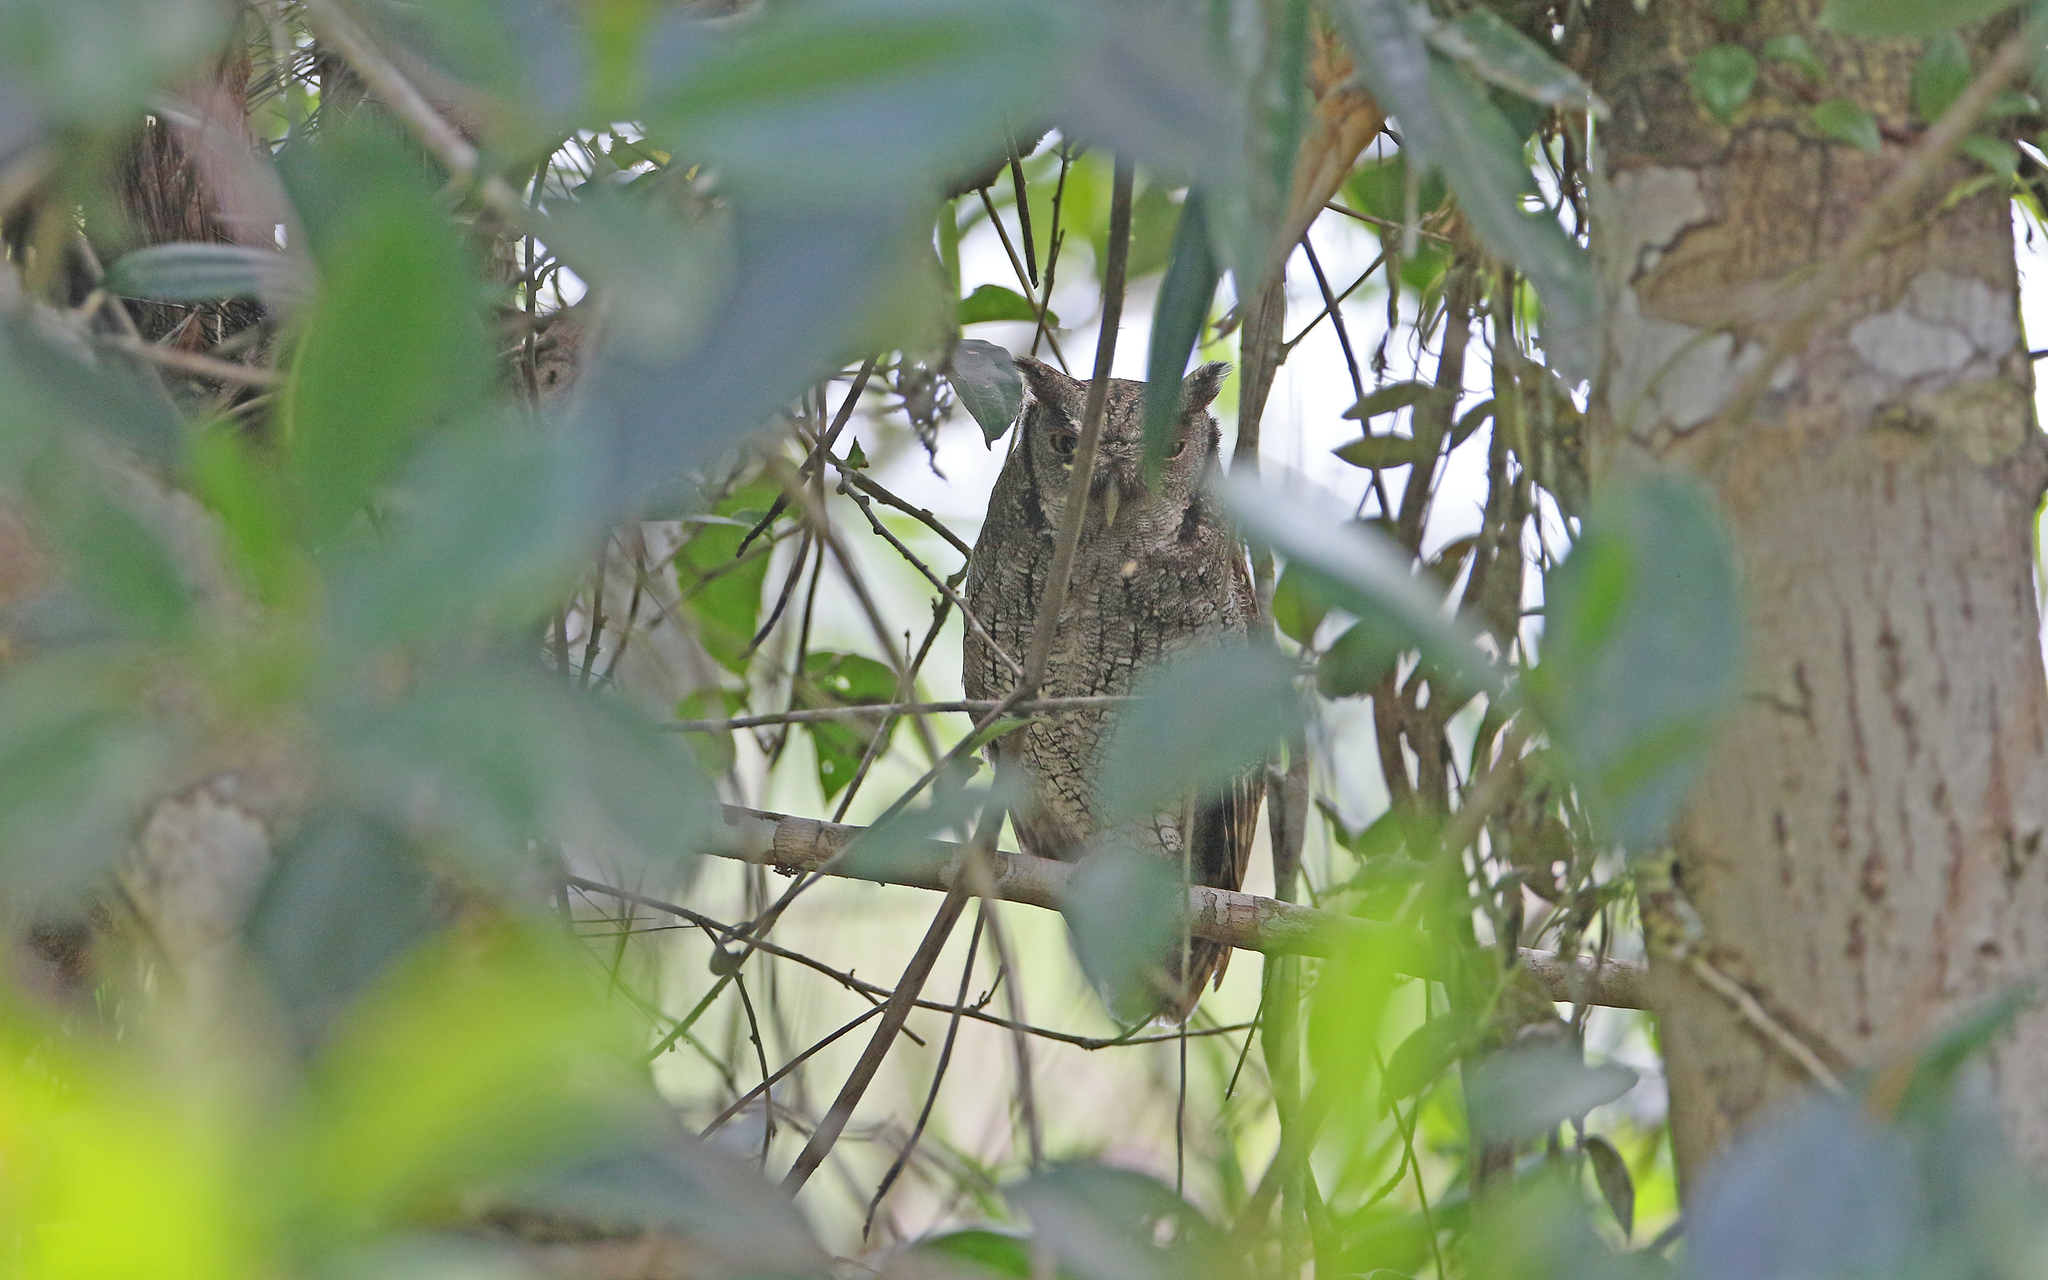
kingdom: Animalia
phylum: Chordata
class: Aves
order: Strigiformes
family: Strigidae
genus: Megascops
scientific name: Megascops choliba
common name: Tropical screech-owl
